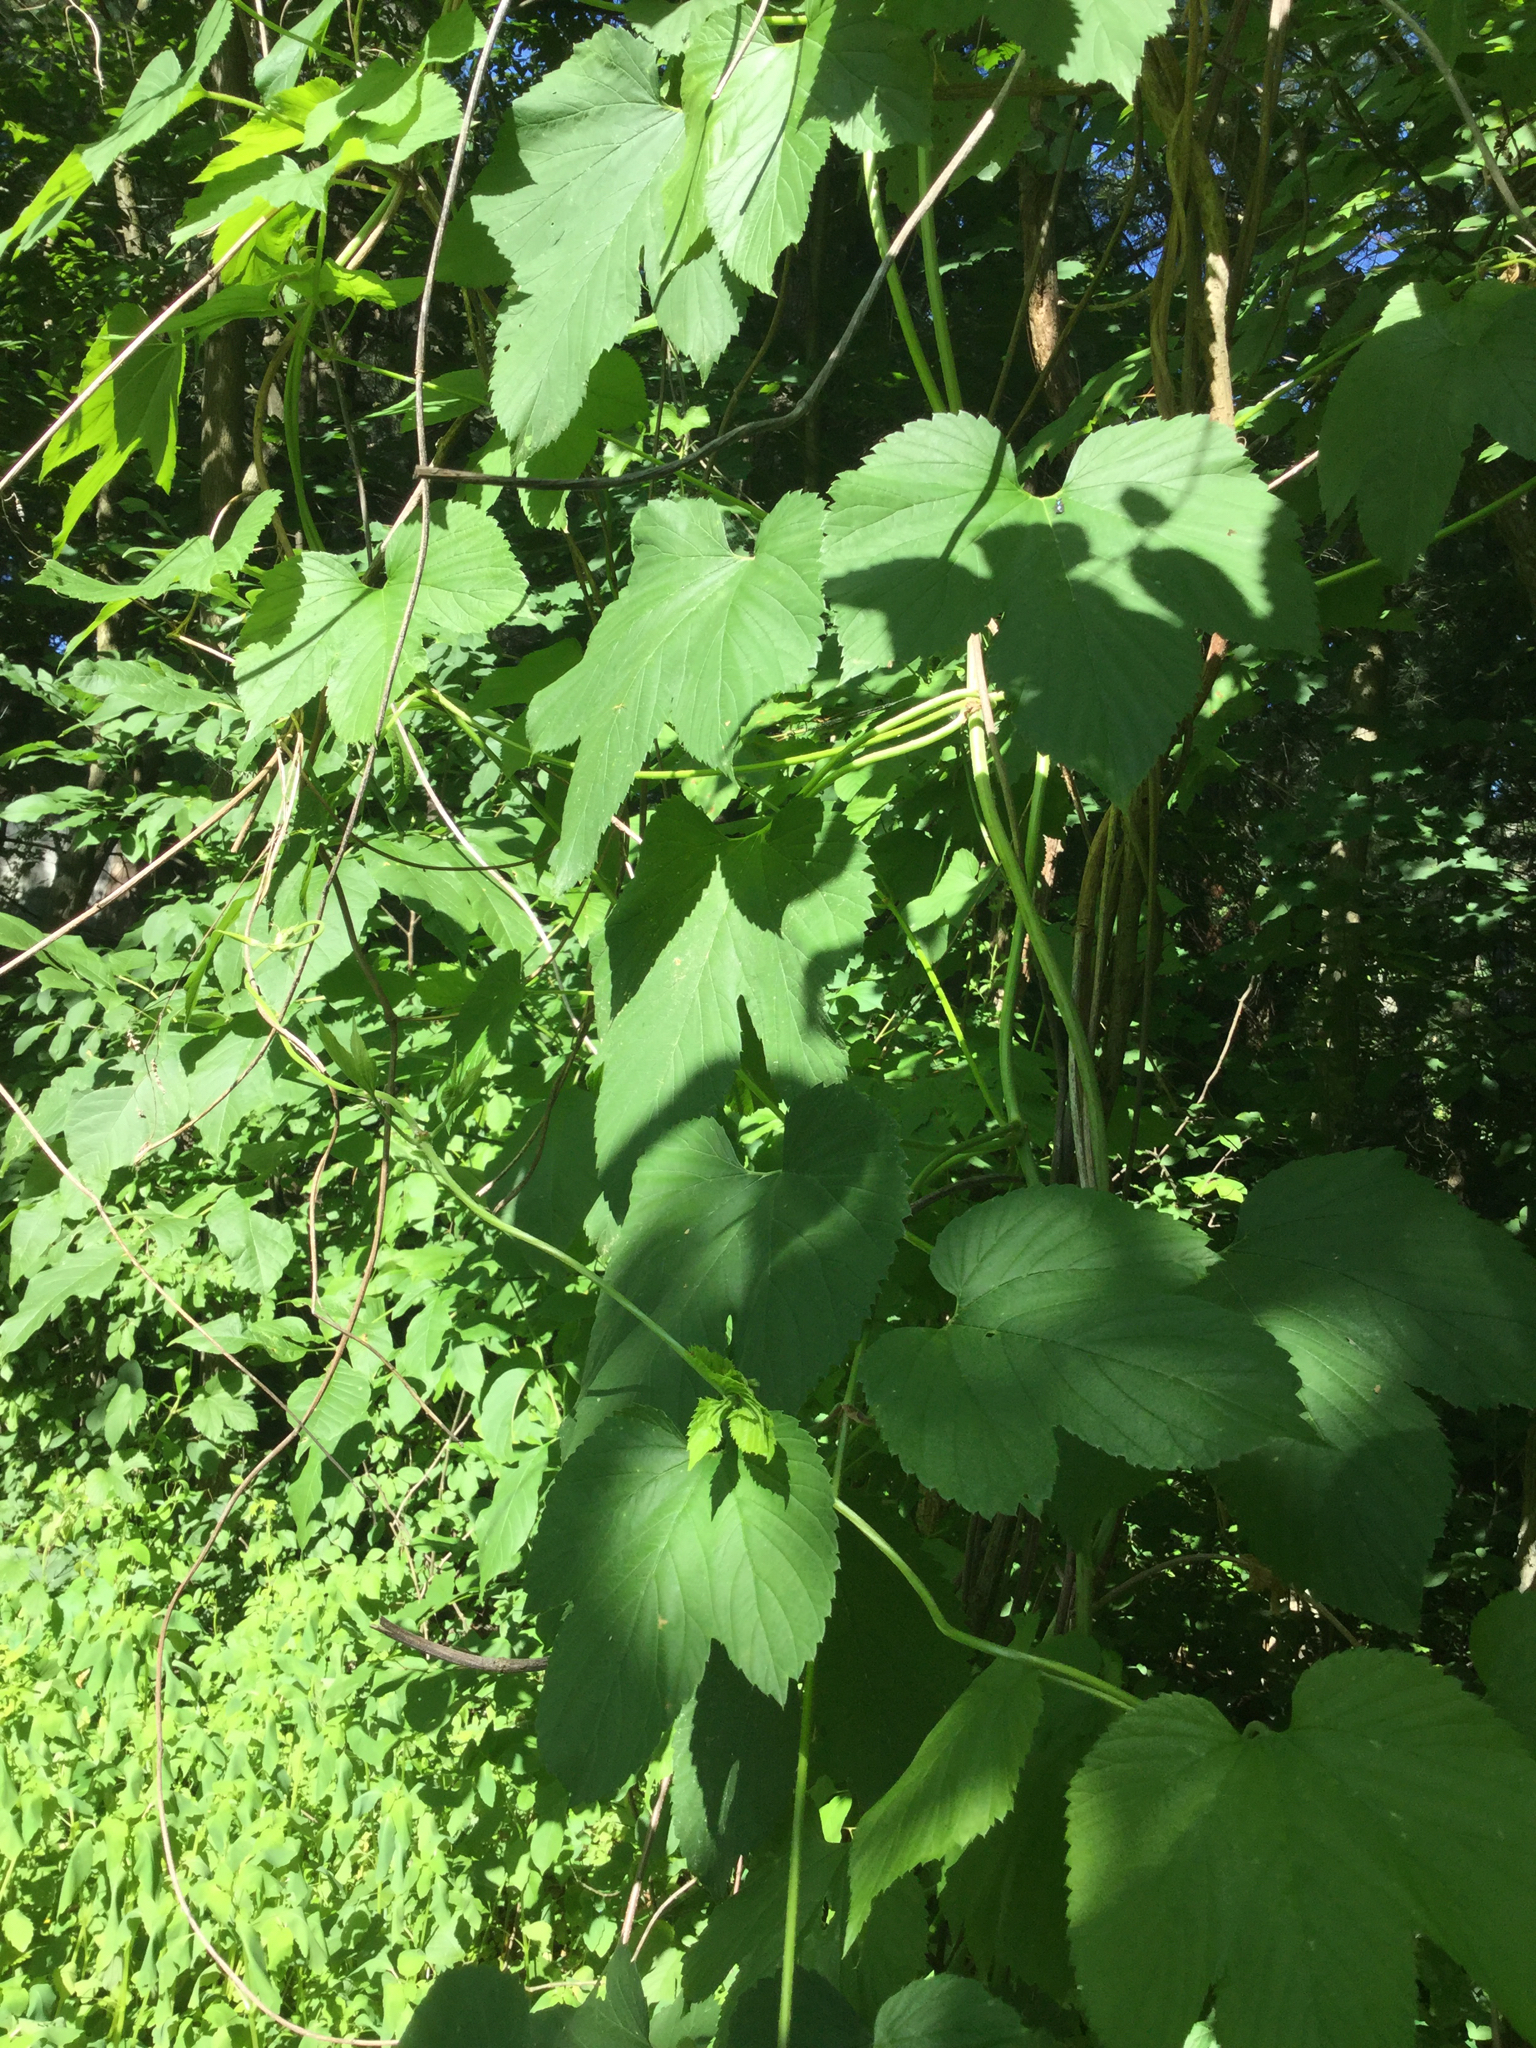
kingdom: Plantae
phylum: Tracheophyta
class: Magnoliopsida
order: Rosales
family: Cannabaceae
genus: Humulus
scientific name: Humulus lupulus
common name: Hop
